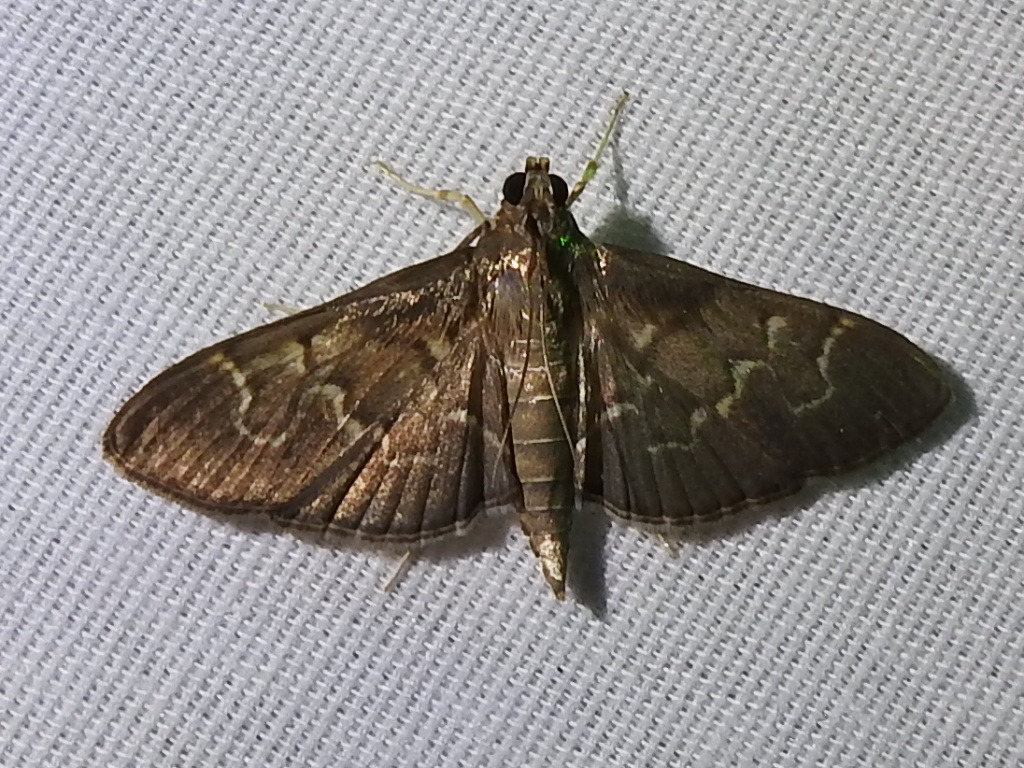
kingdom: Animalia
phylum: Arthropoda
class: Insecta
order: Lepidoptera
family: Crambidae
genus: Pilocrocis
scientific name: Pilocrocis ramentalis
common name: Scraped pilocrocis
